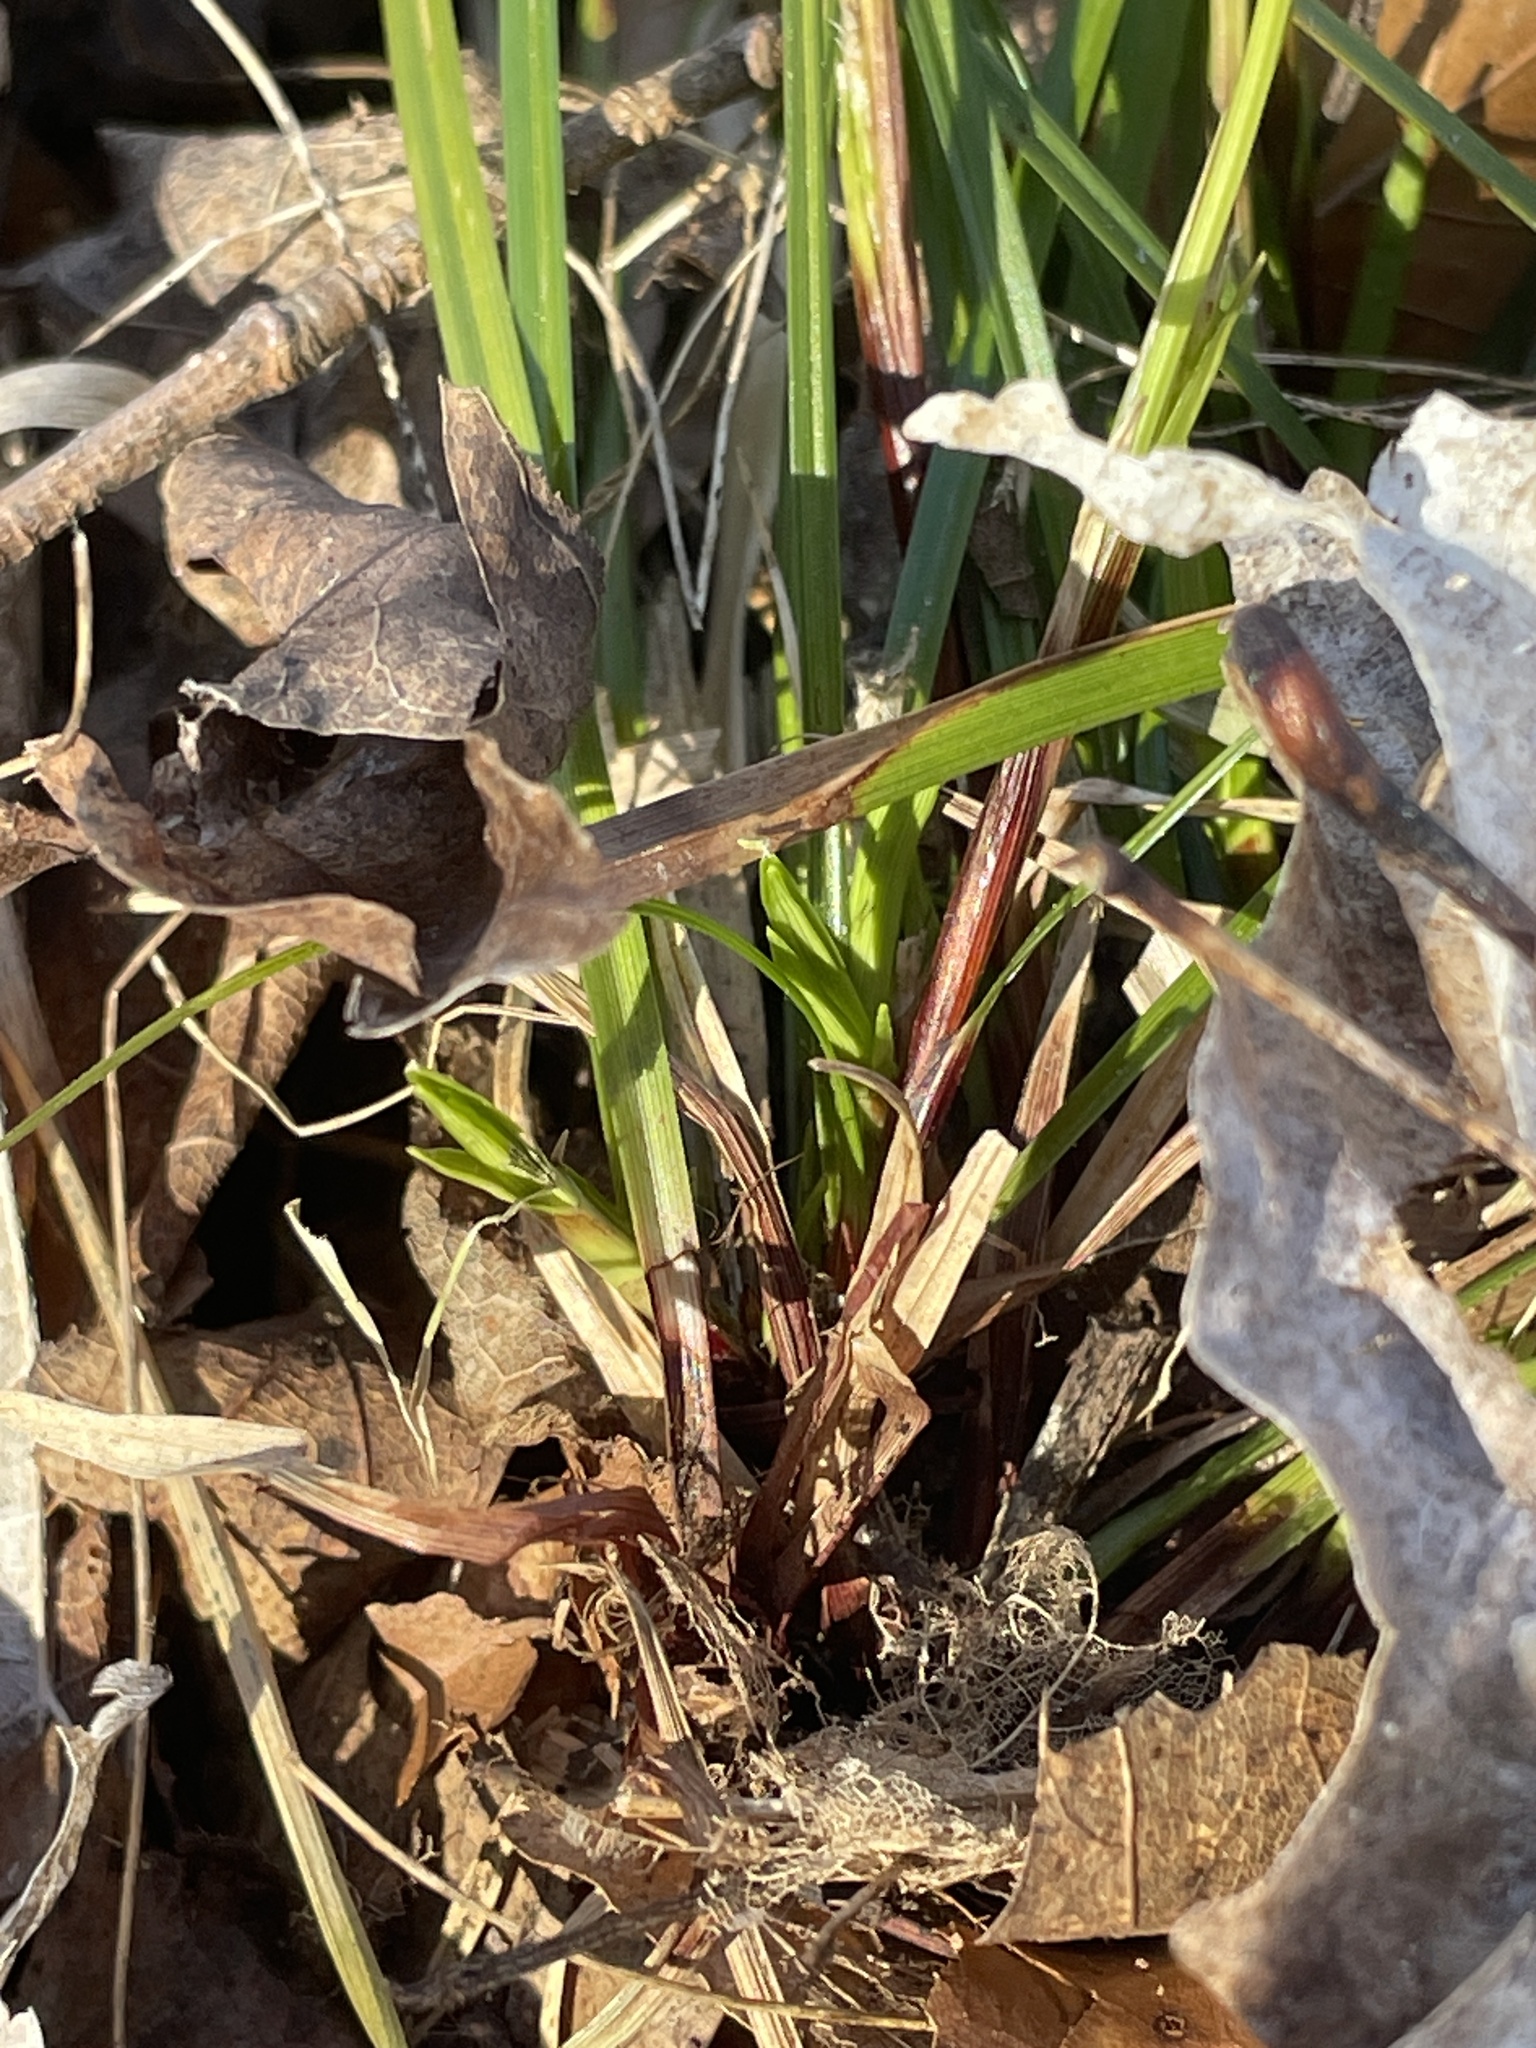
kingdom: Plantae
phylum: Tracheophyta
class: Liliopsida
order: Poales
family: Cyperaceae
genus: Carex
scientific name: Carex pedunculata
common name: Pedunculate sedge
